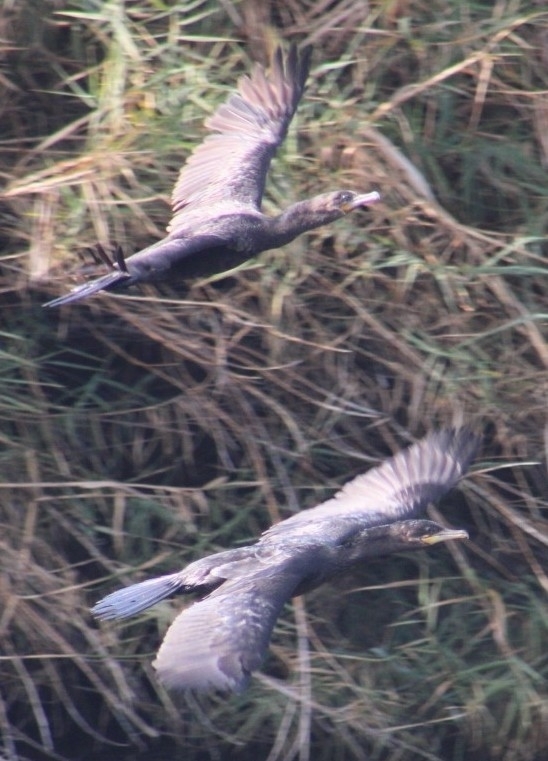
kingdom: Animalia
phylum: Chordata
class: Aves
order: Suliformes
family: Phalacrocoracidae
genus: Phalacrocorax
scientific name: Phalacrocorax auritus
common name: Double-crested cormorant
